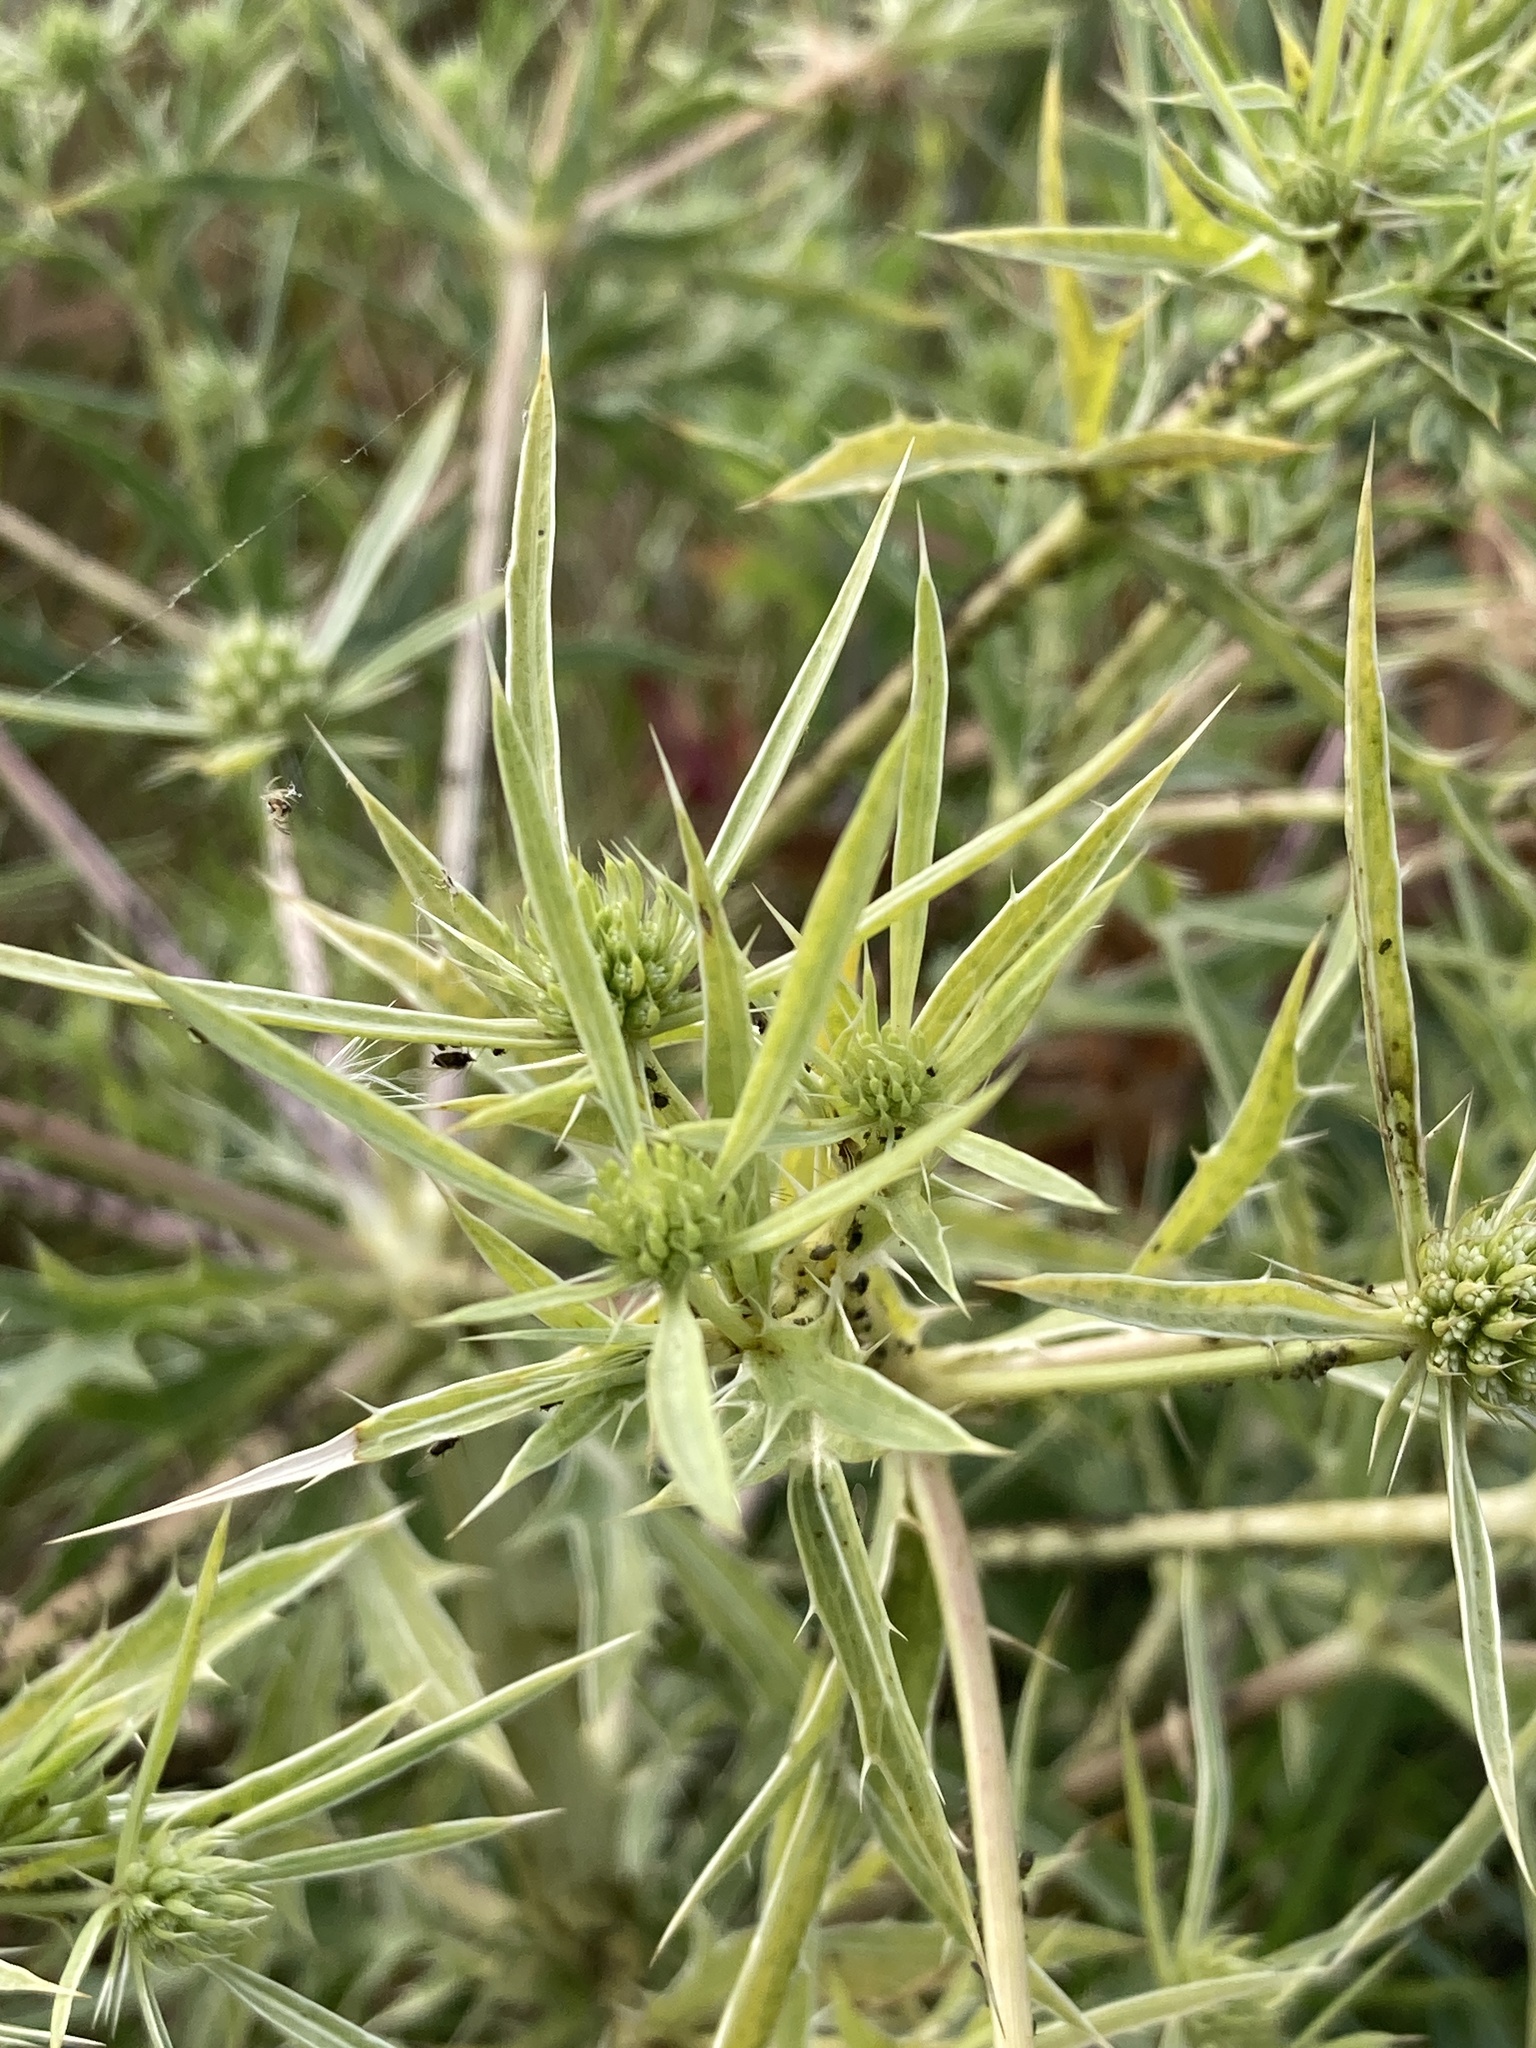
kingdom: Plantae
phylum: Tracheophyta
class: Magnoliopsida
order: Apiales
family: Apiaceae
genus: Eryngium
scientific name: Eryngium campestre
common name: Field eryngo
